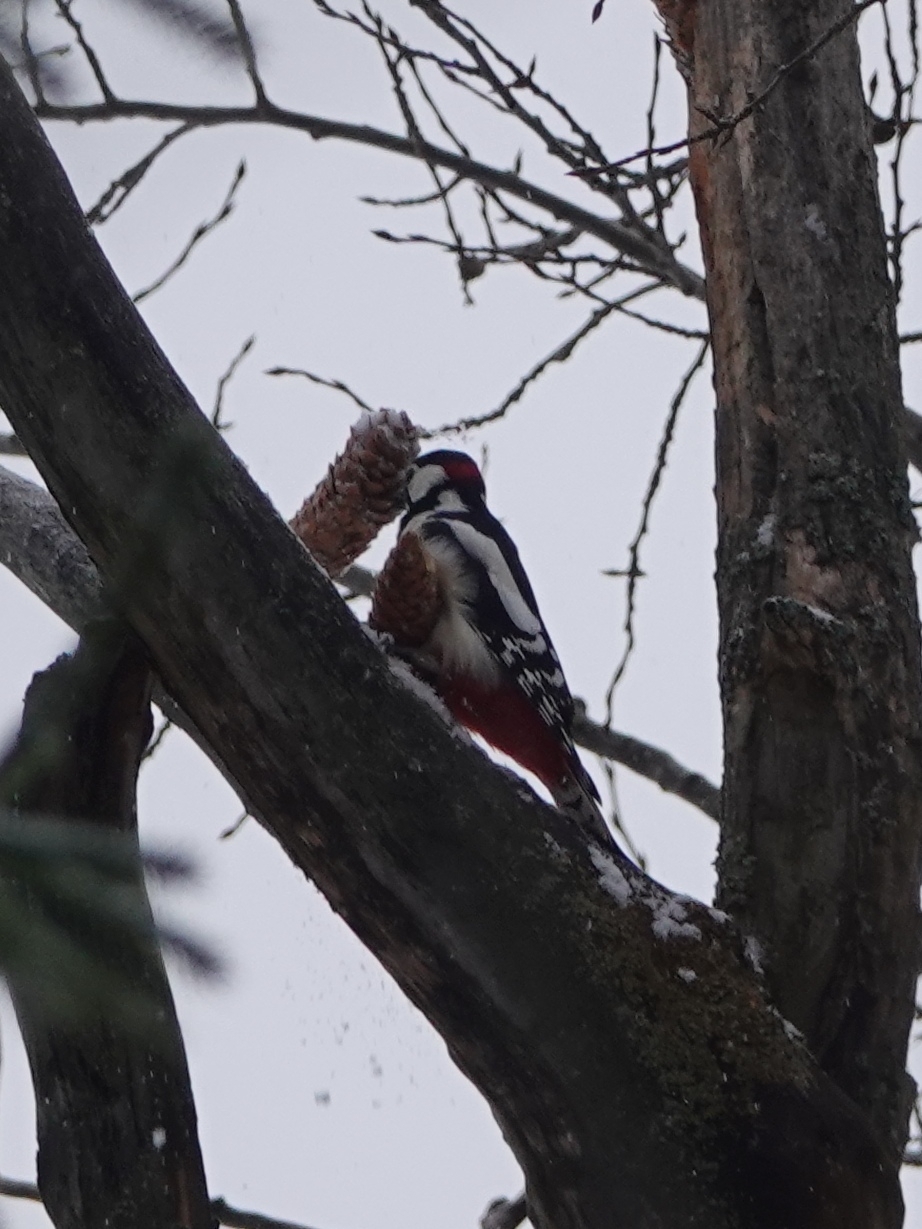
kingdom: Animalia
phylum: Chordata
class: Aves
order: Piciformes
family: Picidae
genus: Dendrocopos
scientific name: Dendrocopos major
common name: Great spotted woodpecker
